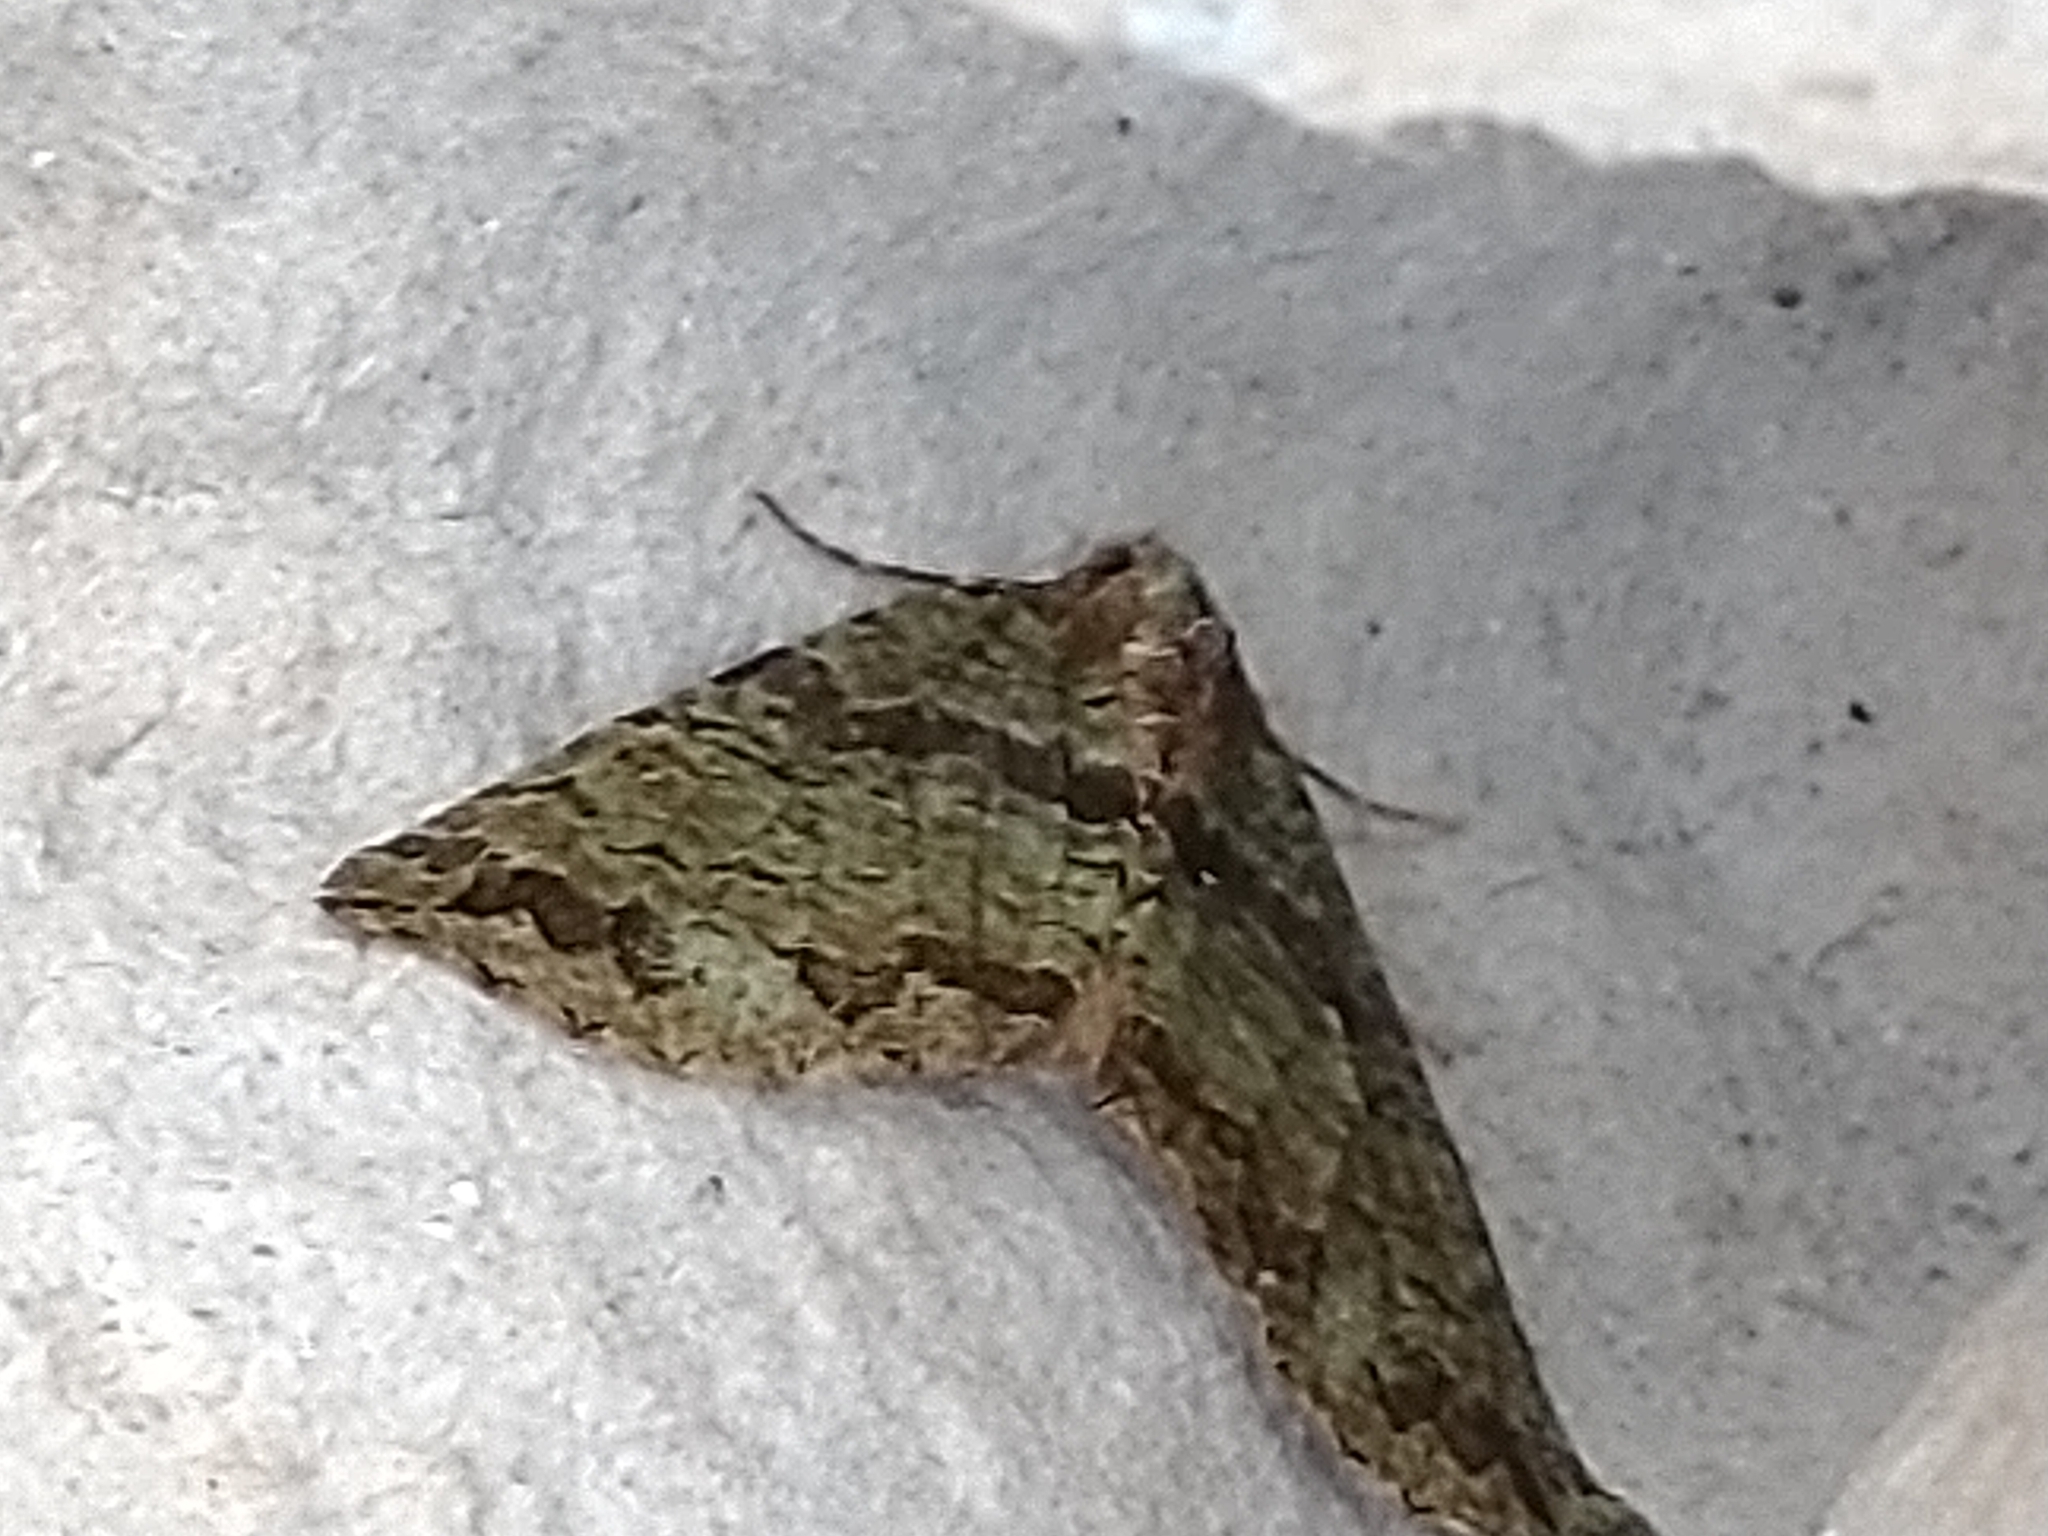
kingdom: Animalia
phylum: Arthropoda
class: Insecta
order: Lepidoptera
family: Geometridae
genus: Hydriomena
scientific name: Hydriomena furcata
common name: July highflyer
